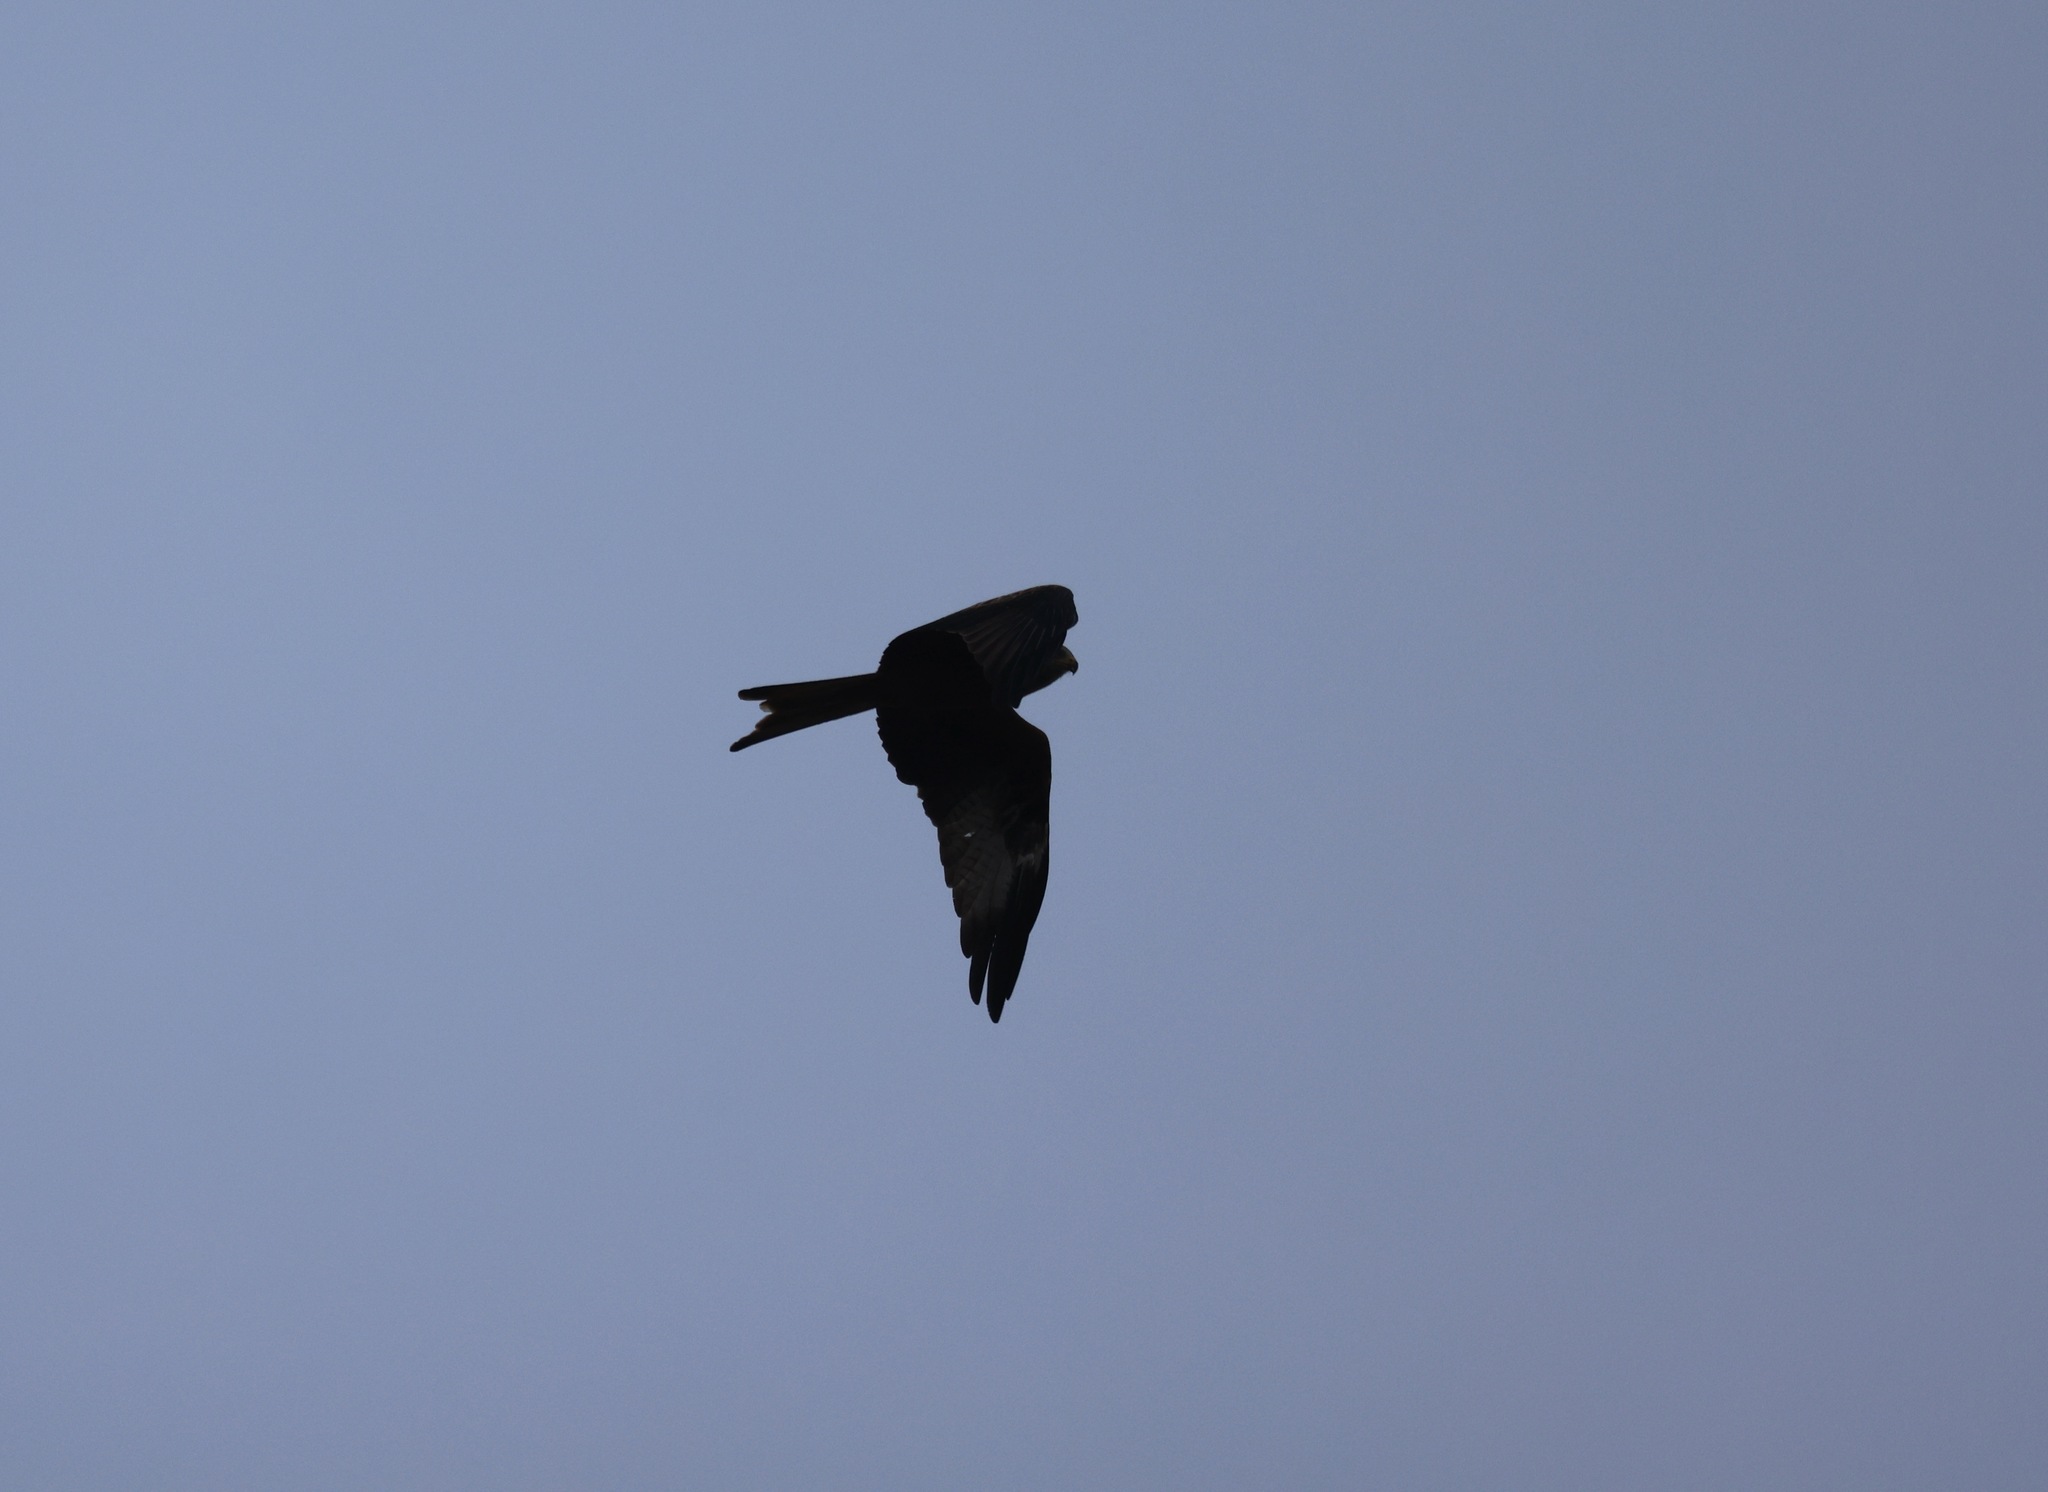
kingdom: Animalia
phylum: Chordata
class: Aves
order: Accipitriformes
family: Accipitridae
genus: Milvus
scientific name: Milvus milvus
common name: Red kite
